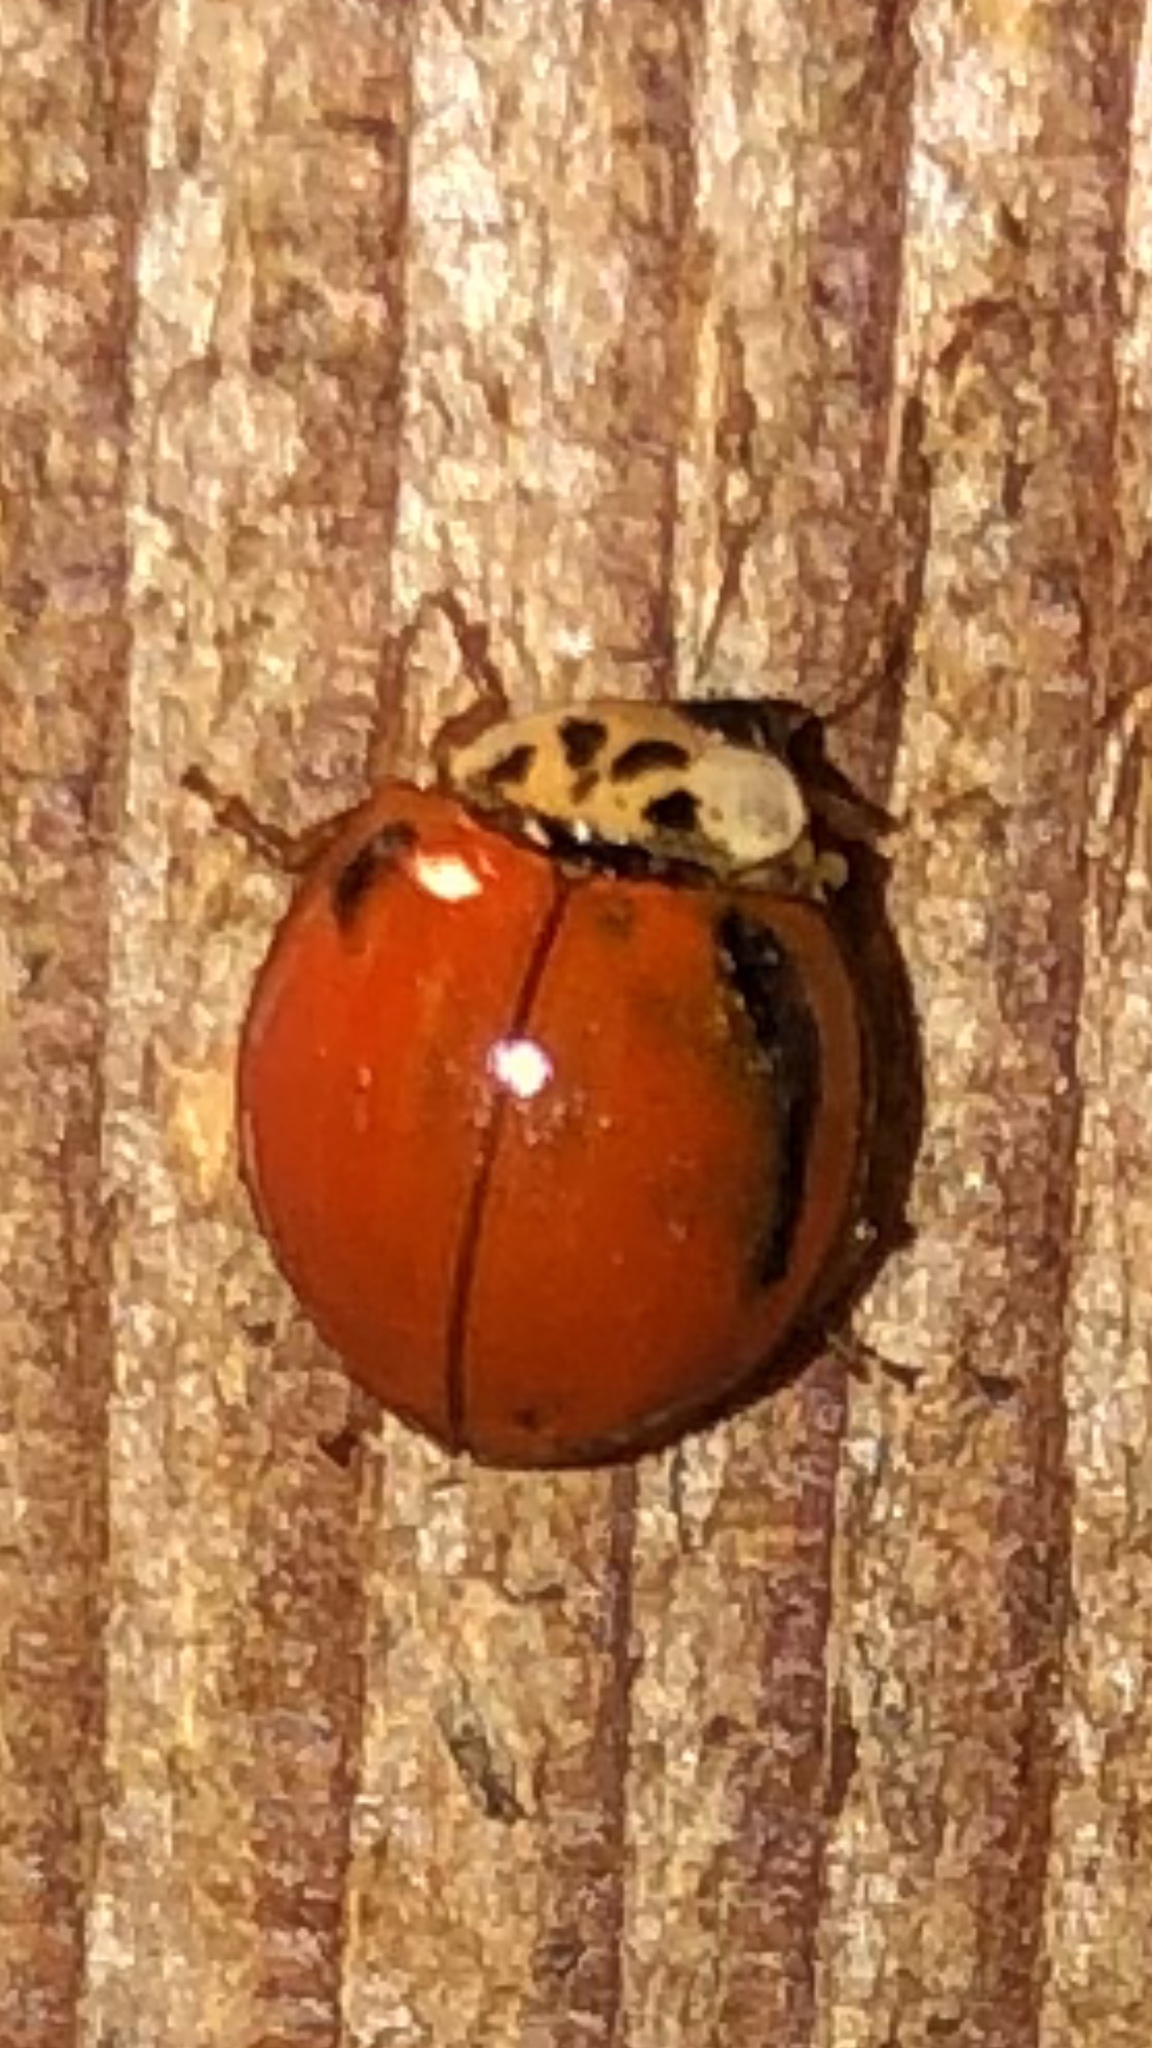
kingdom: Animalia
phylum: Arthropoda
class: Insecta
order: Coleoptera
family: Coccinellidae
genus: Harmonia
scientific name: Harmonia axyridis
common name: Harlequin ladybird
